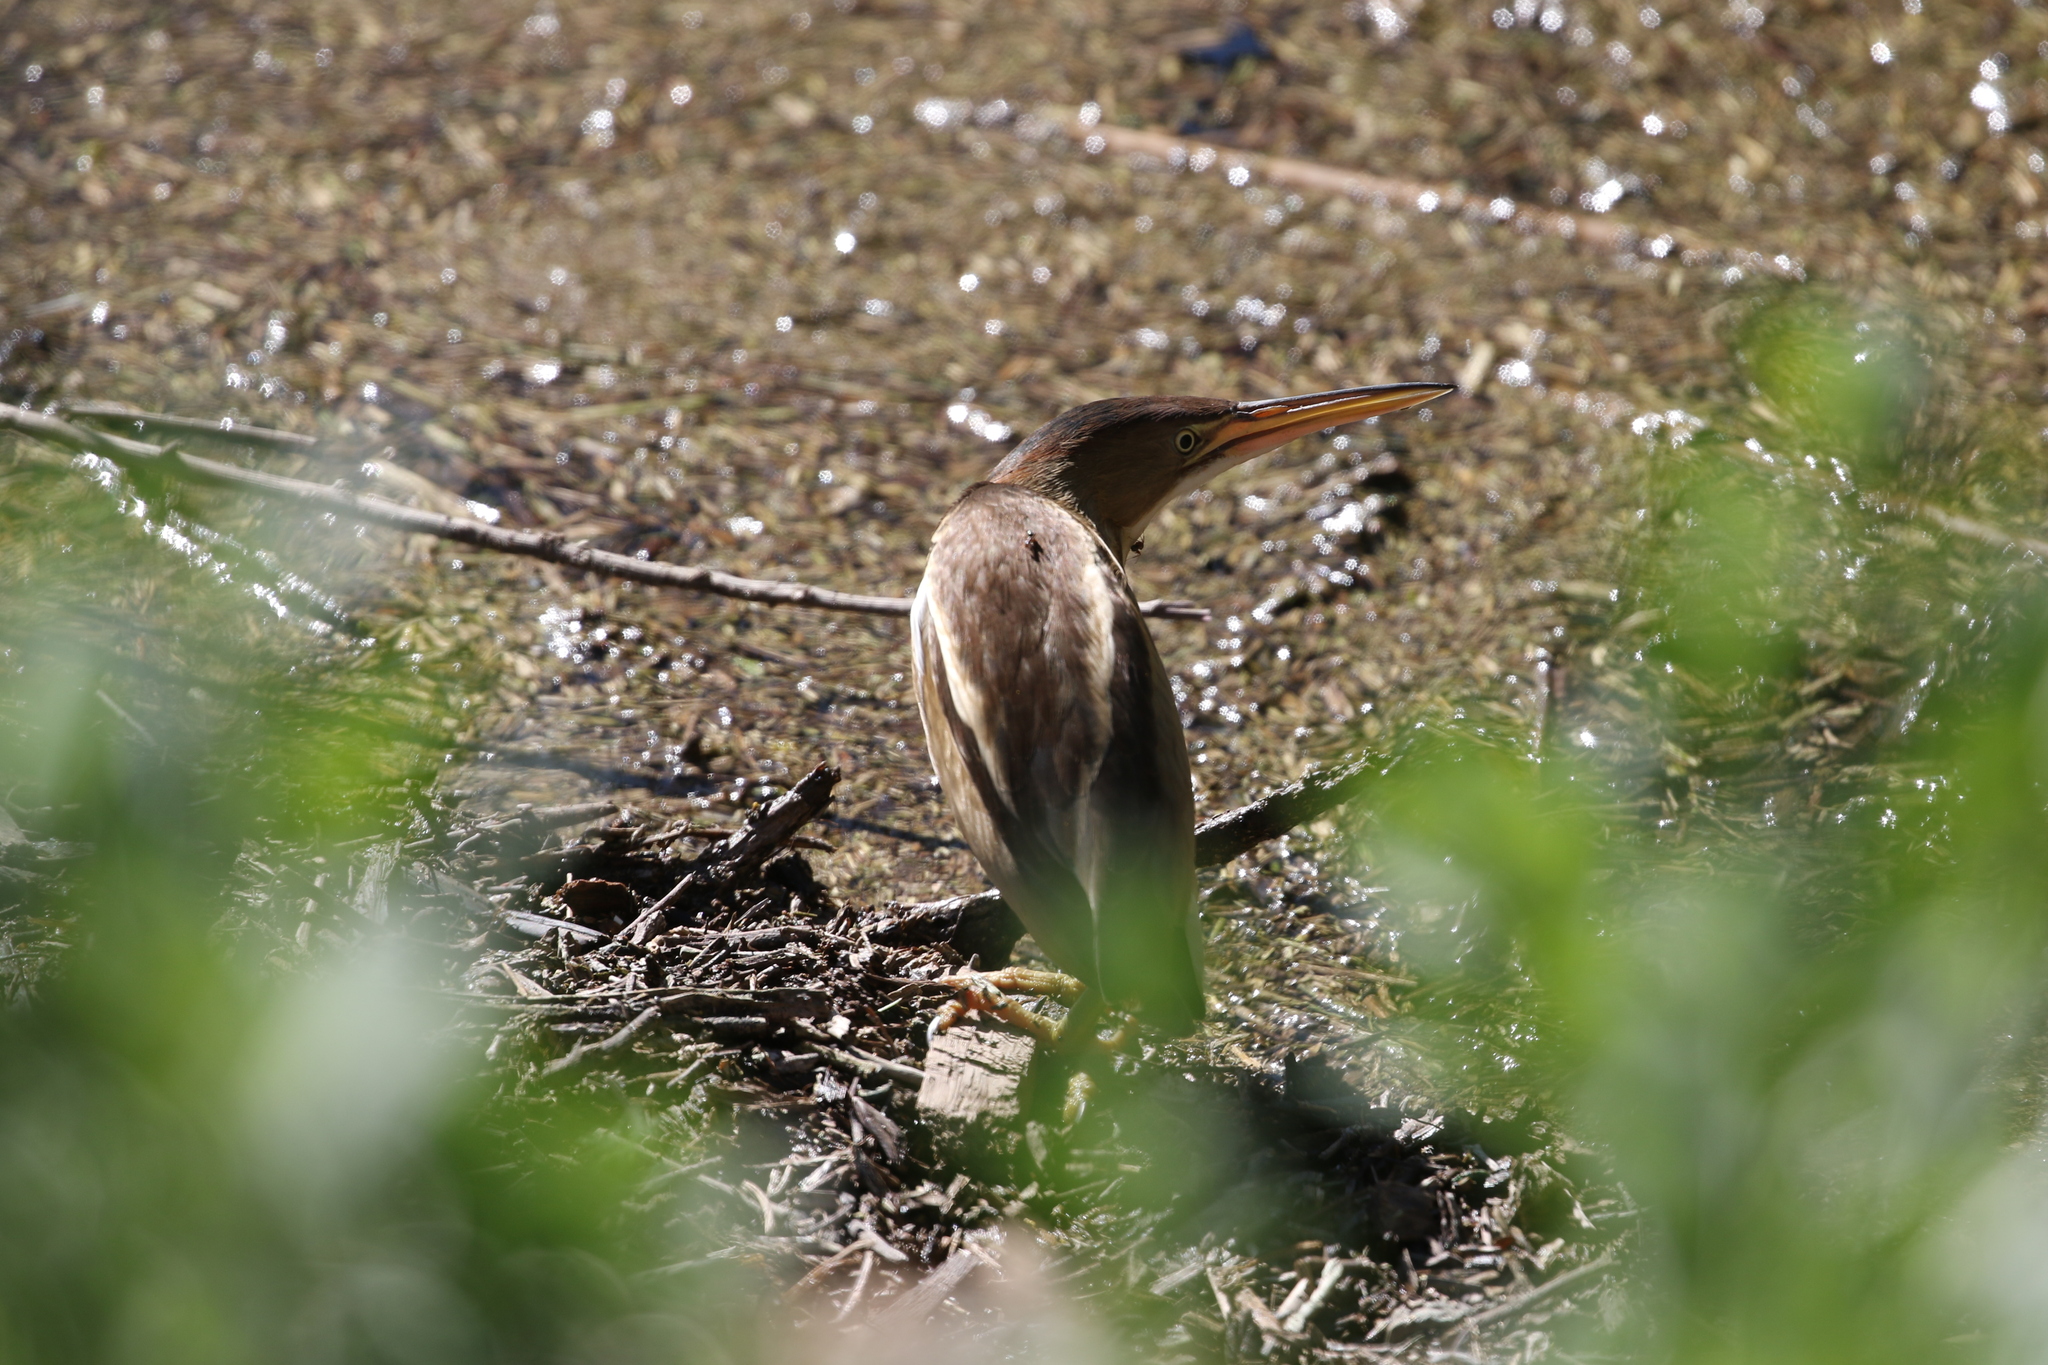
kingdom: Animalia
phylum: Chordata
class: Aves
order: Pelecaniformes
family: Ardeidae
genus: Ixobrychus
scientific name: Ixobrychus exilis
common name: Least bittern
